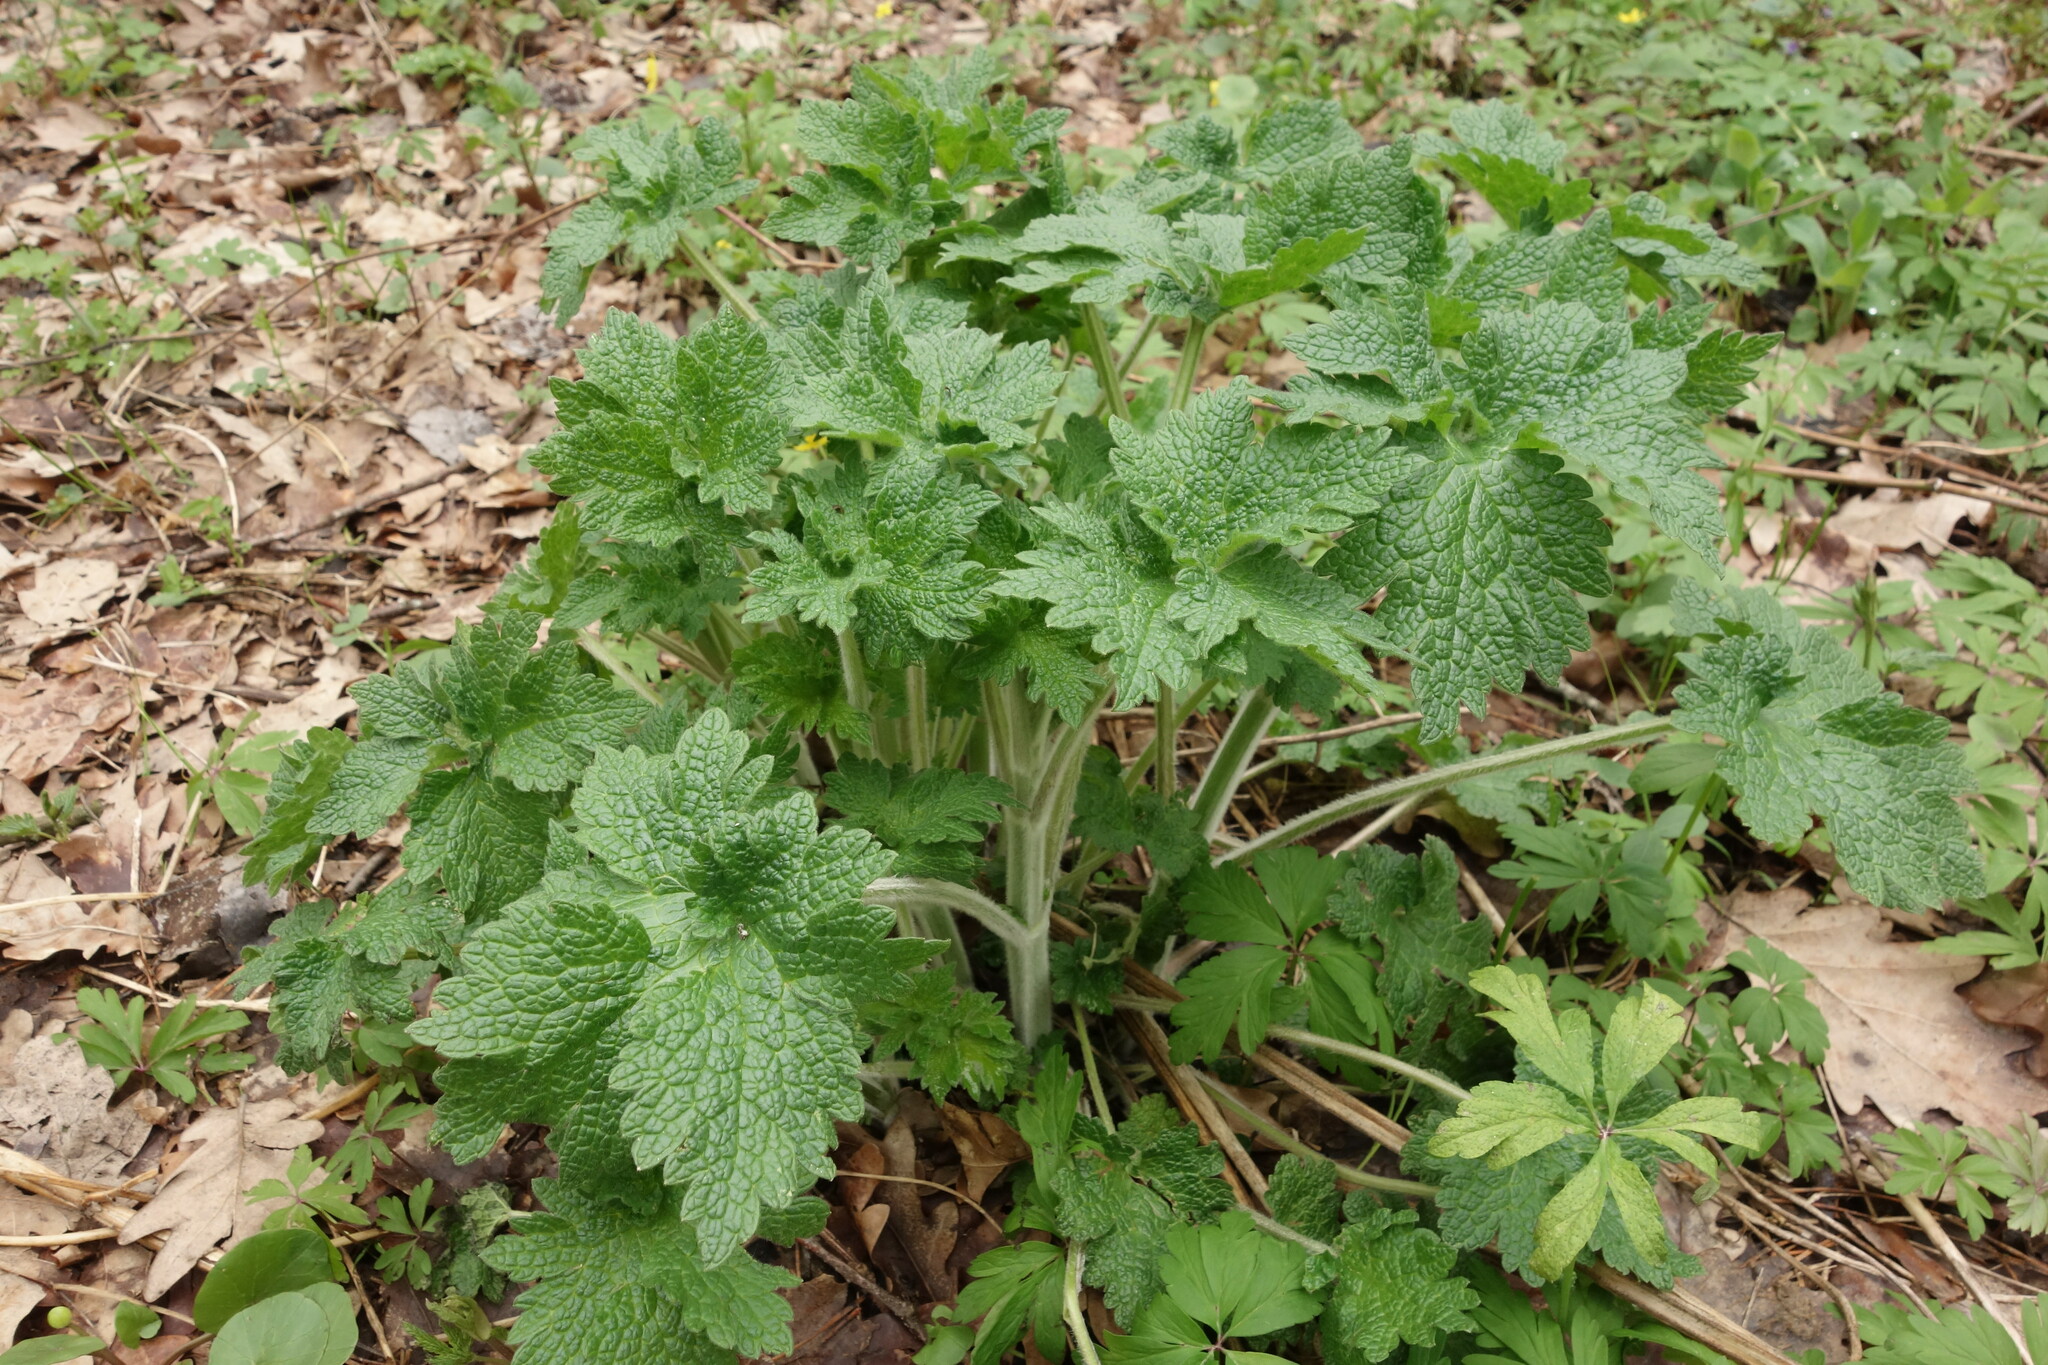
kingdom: Plantae
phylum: Tracheophyta
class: Magnoliopsida
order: Lamiales
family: Lamiaceae
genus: Leonurus
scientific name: Leonurus quinquelobatus
